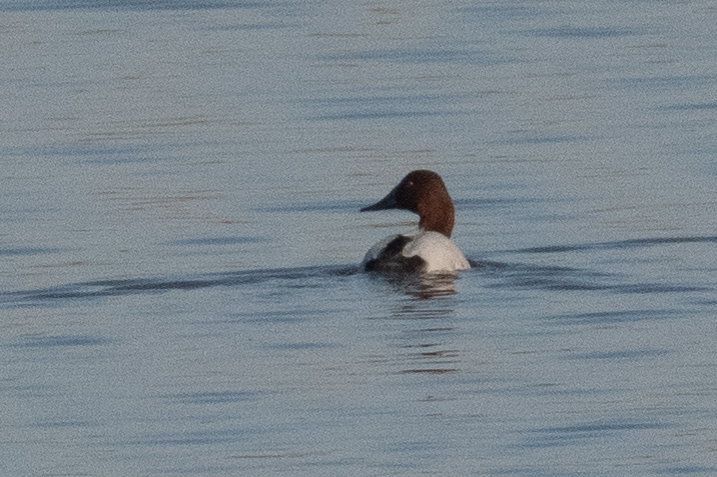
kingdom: Animalia
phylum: Chordata
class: Aves
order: Anseriformes
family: Anatidae
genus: Aythya
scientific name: Aythya valisineria
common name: Canvasback
